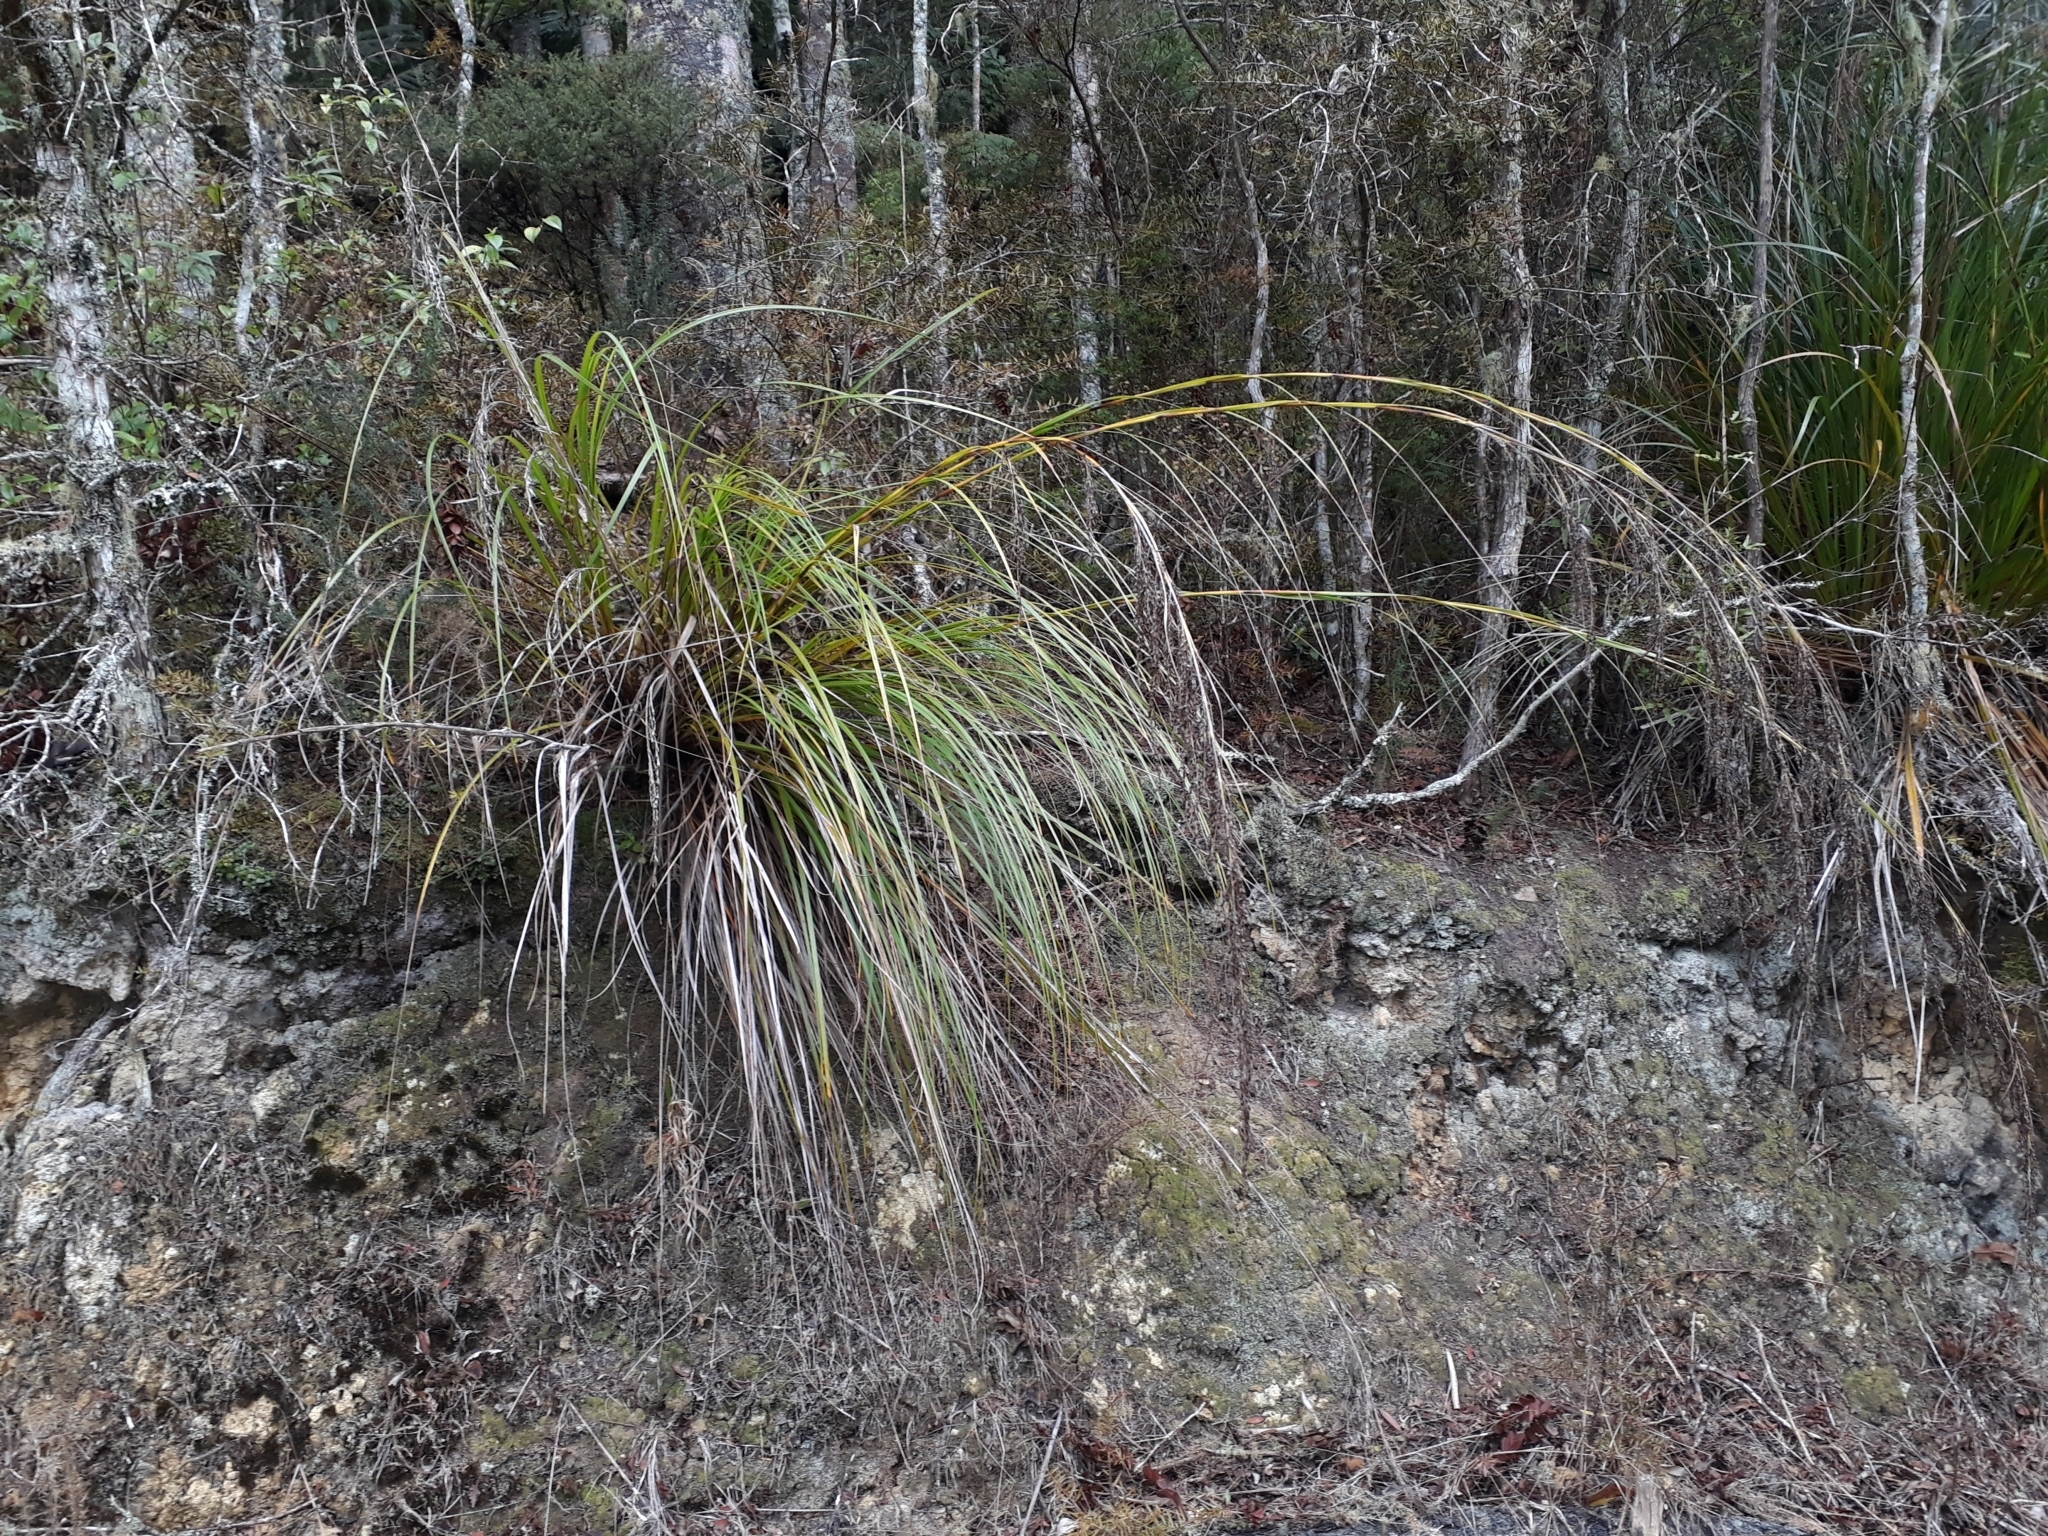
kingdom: Plantae
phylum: Tracheophyta
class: Liliopsida
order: Poales
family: Cyperaceae
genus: Gahnia
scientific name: Gahnia setifolia
